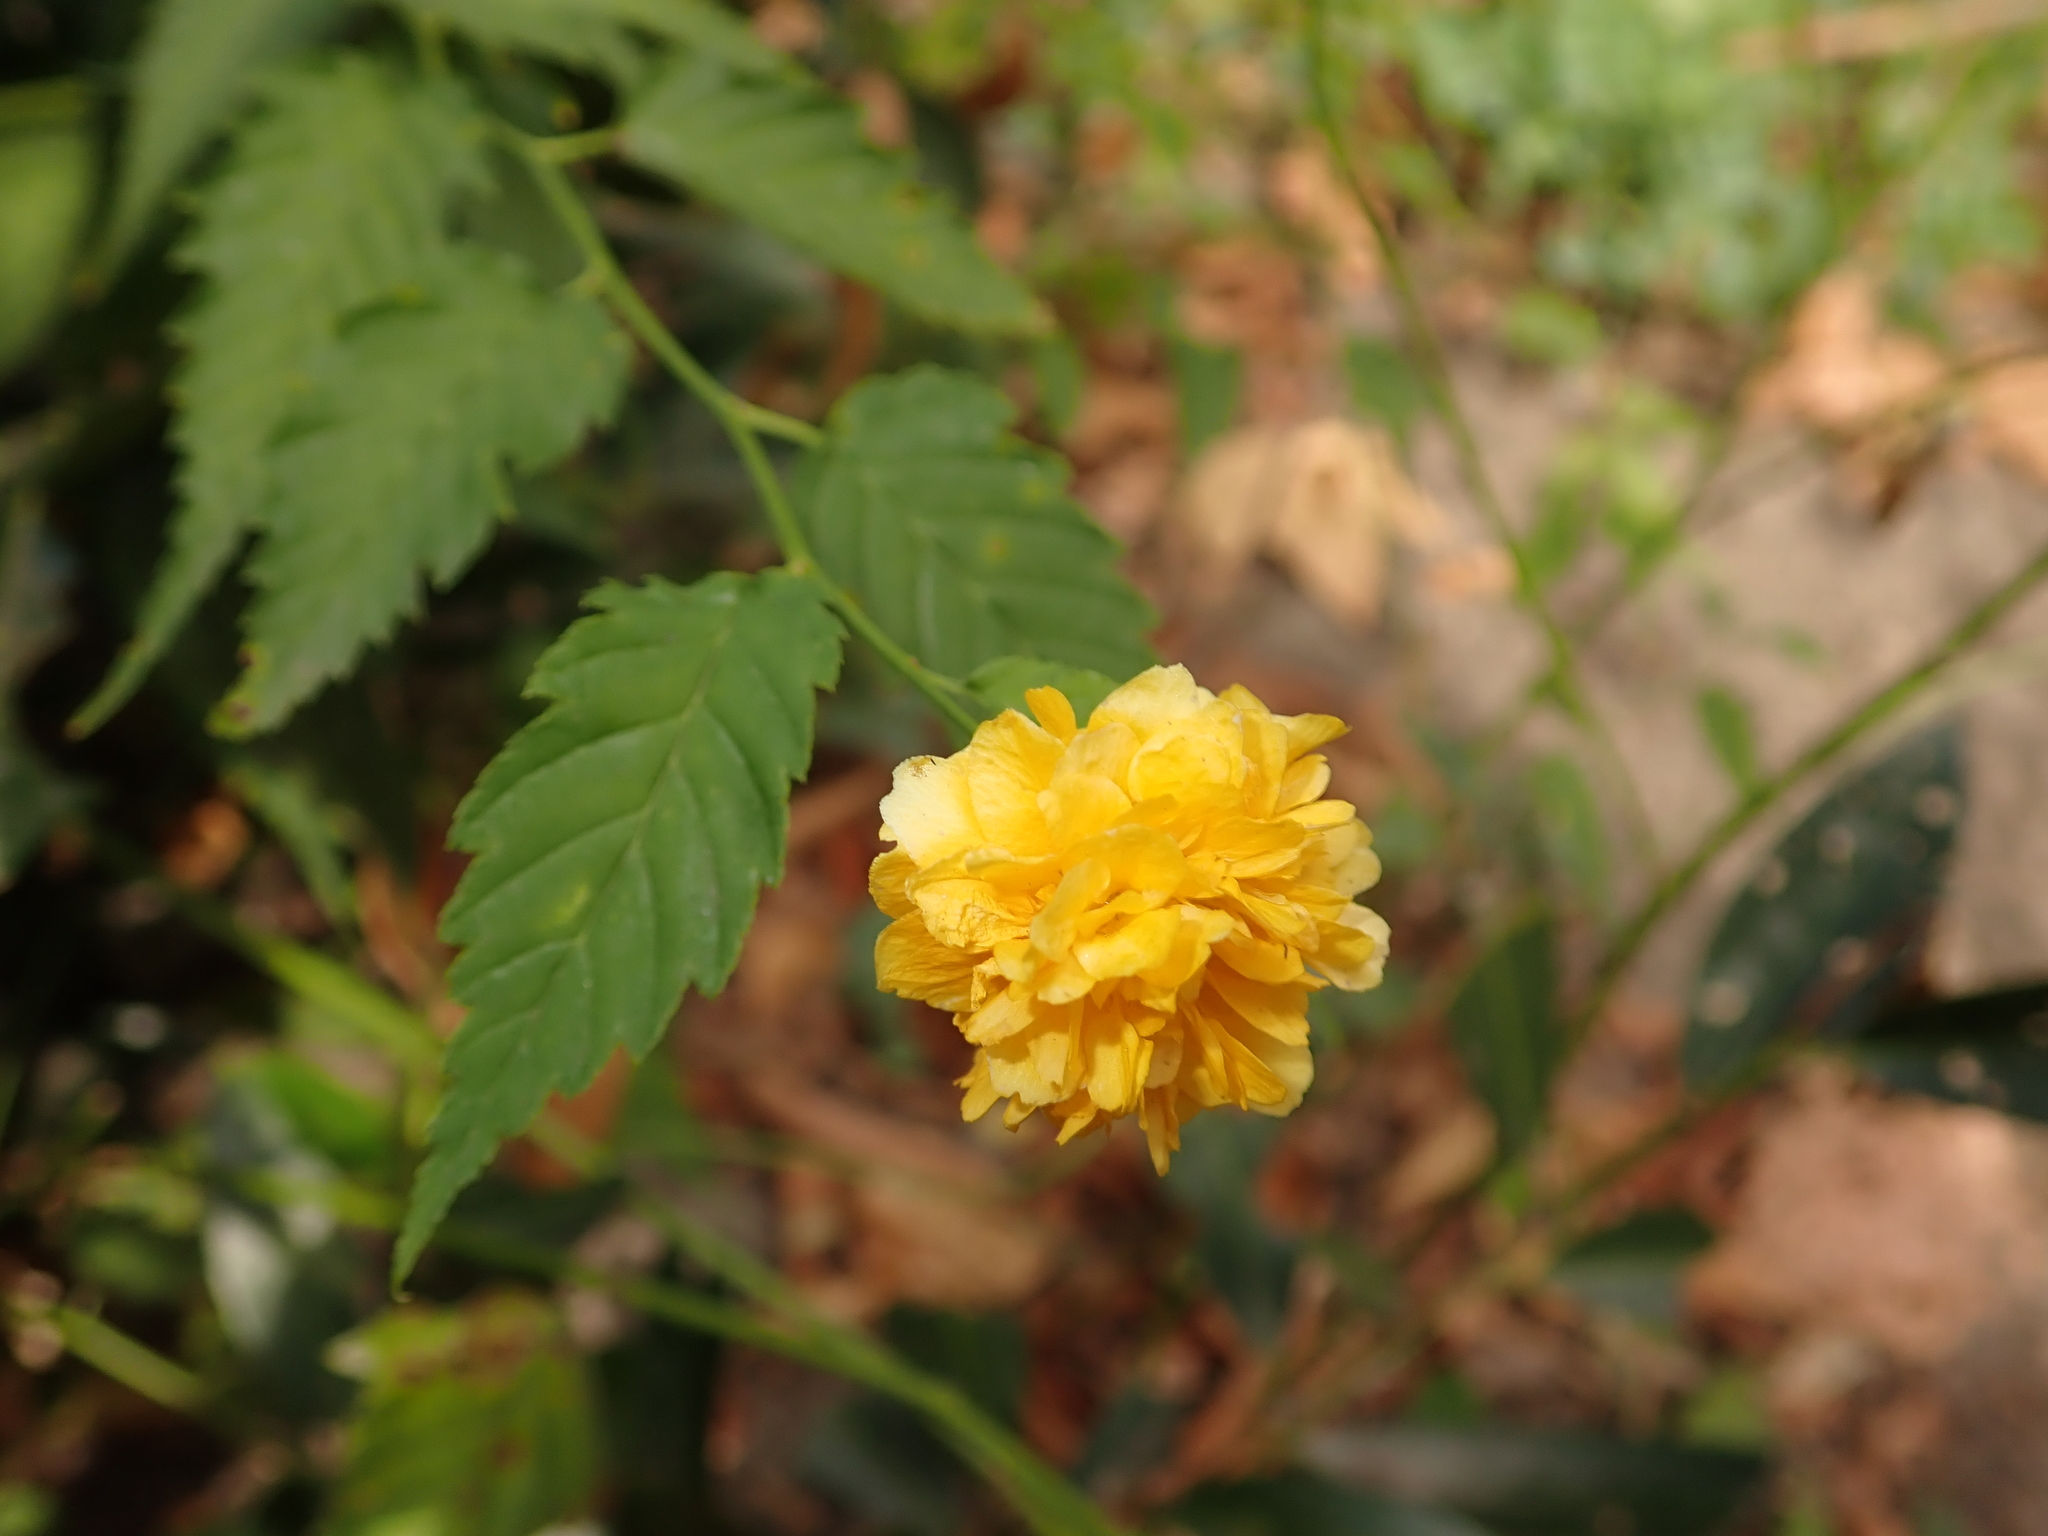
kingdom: Plantae
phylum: Tracheophyta
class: Magnoliopsida
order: Rosales
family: Rosaceae
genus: Kerria
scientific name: Kerria japonica
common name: Japanese kerria
